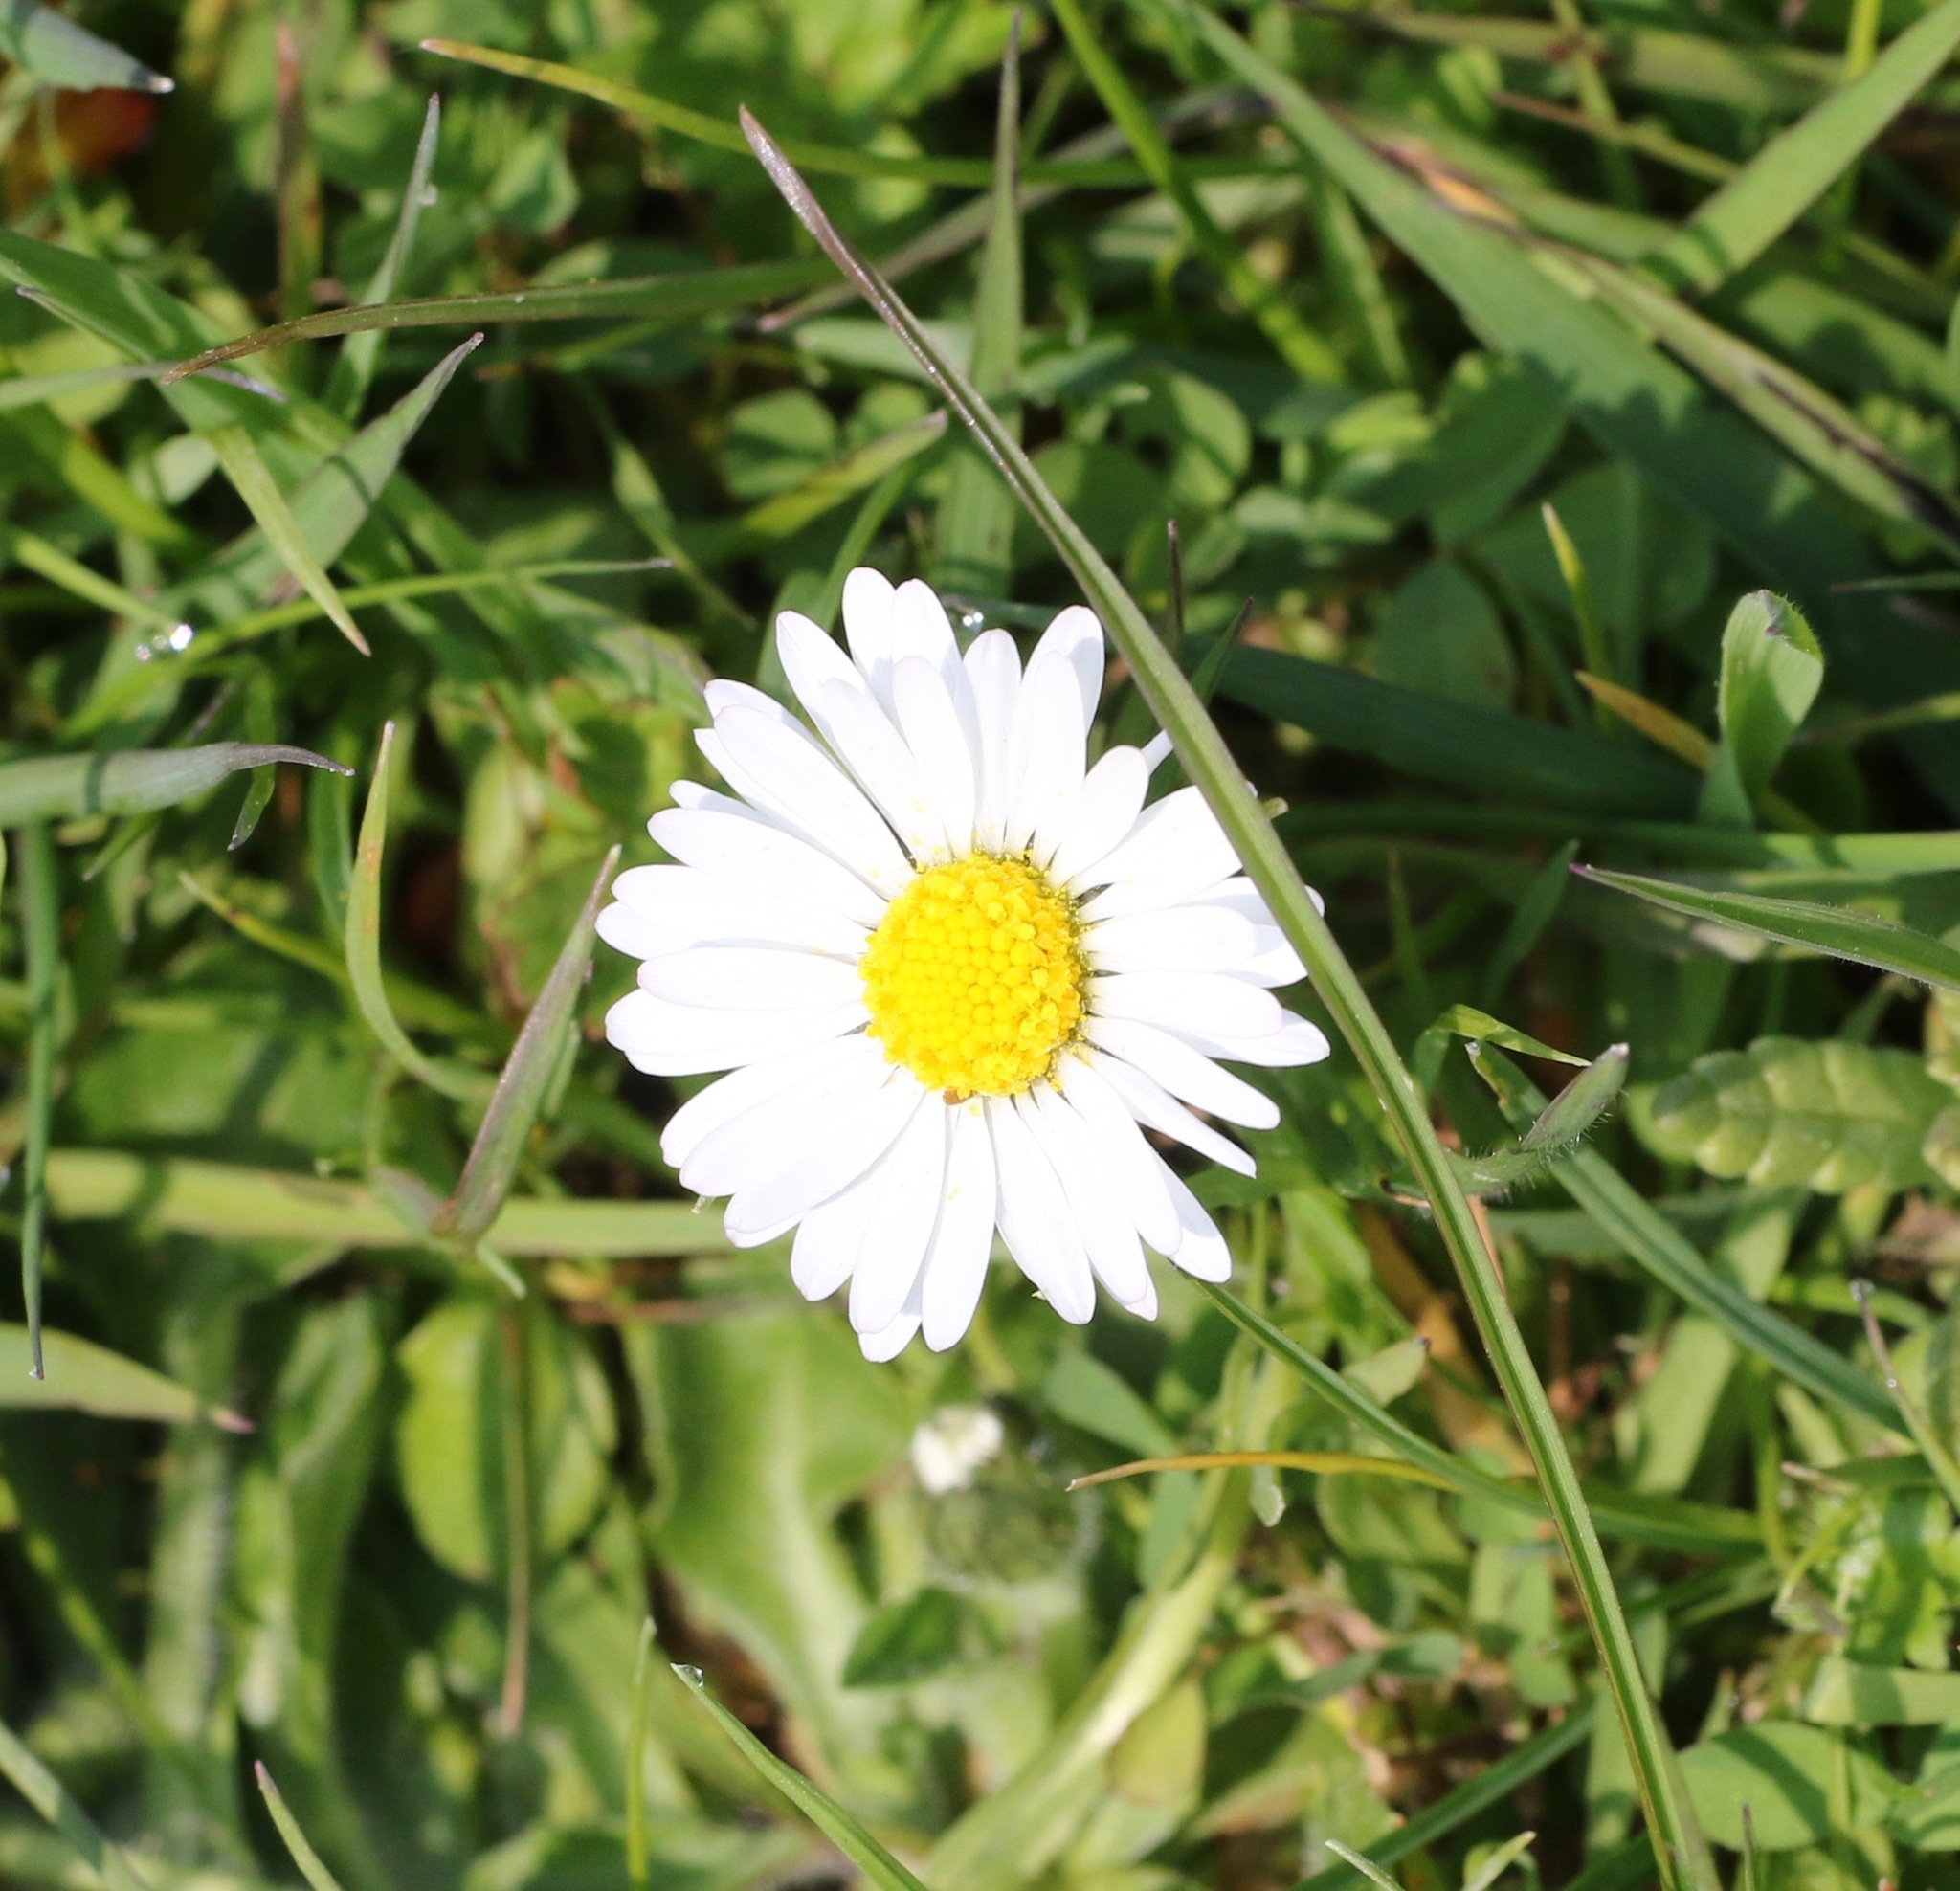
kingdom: Plantae
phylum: Tracheophyta
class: Magnoliopsida
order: Asterales
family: Asteraceae
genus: Bellis
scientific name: Bellis perennis
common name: Lawndaisy
